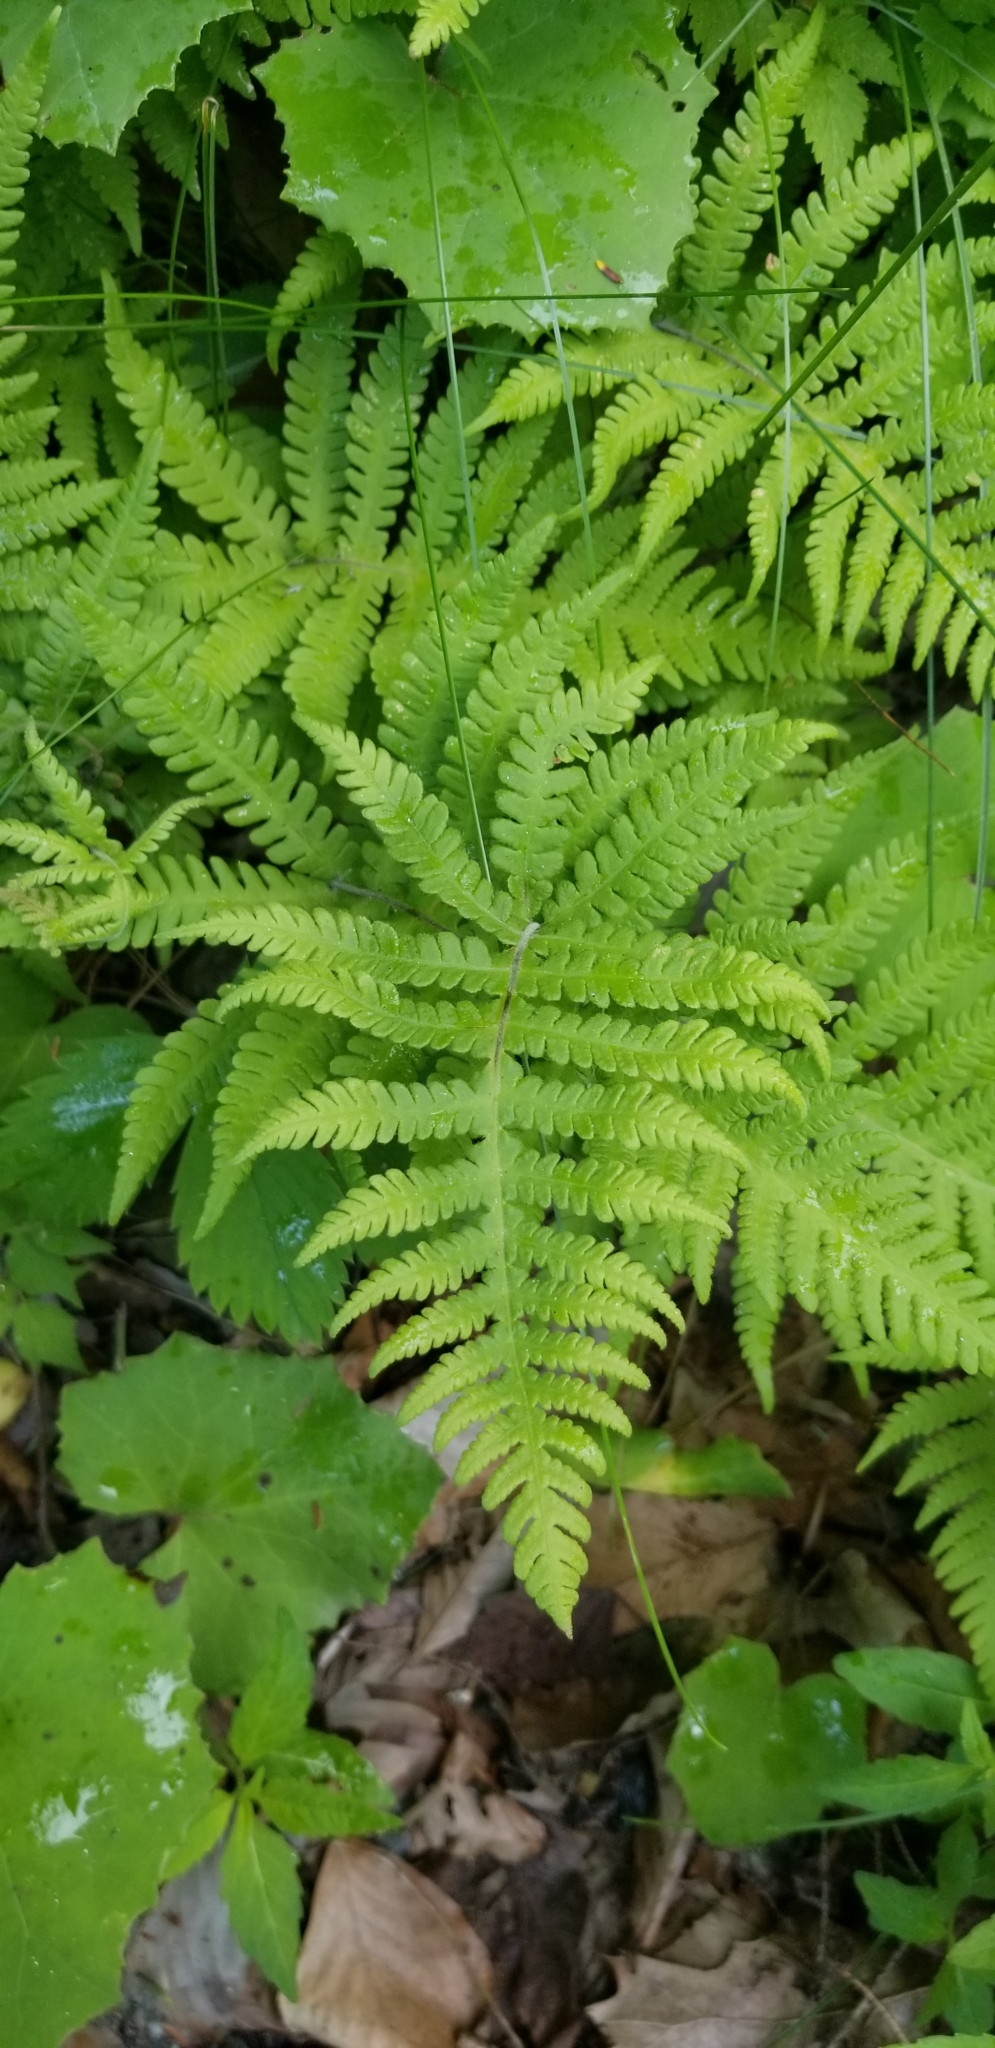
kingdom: Plantae
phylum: Tracheophyta
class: Polypodiopsida
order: Polypodiales
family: Thelypteridaceae
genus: Phegopteris
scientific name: Phegopteris connectilis
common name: Beech fern
